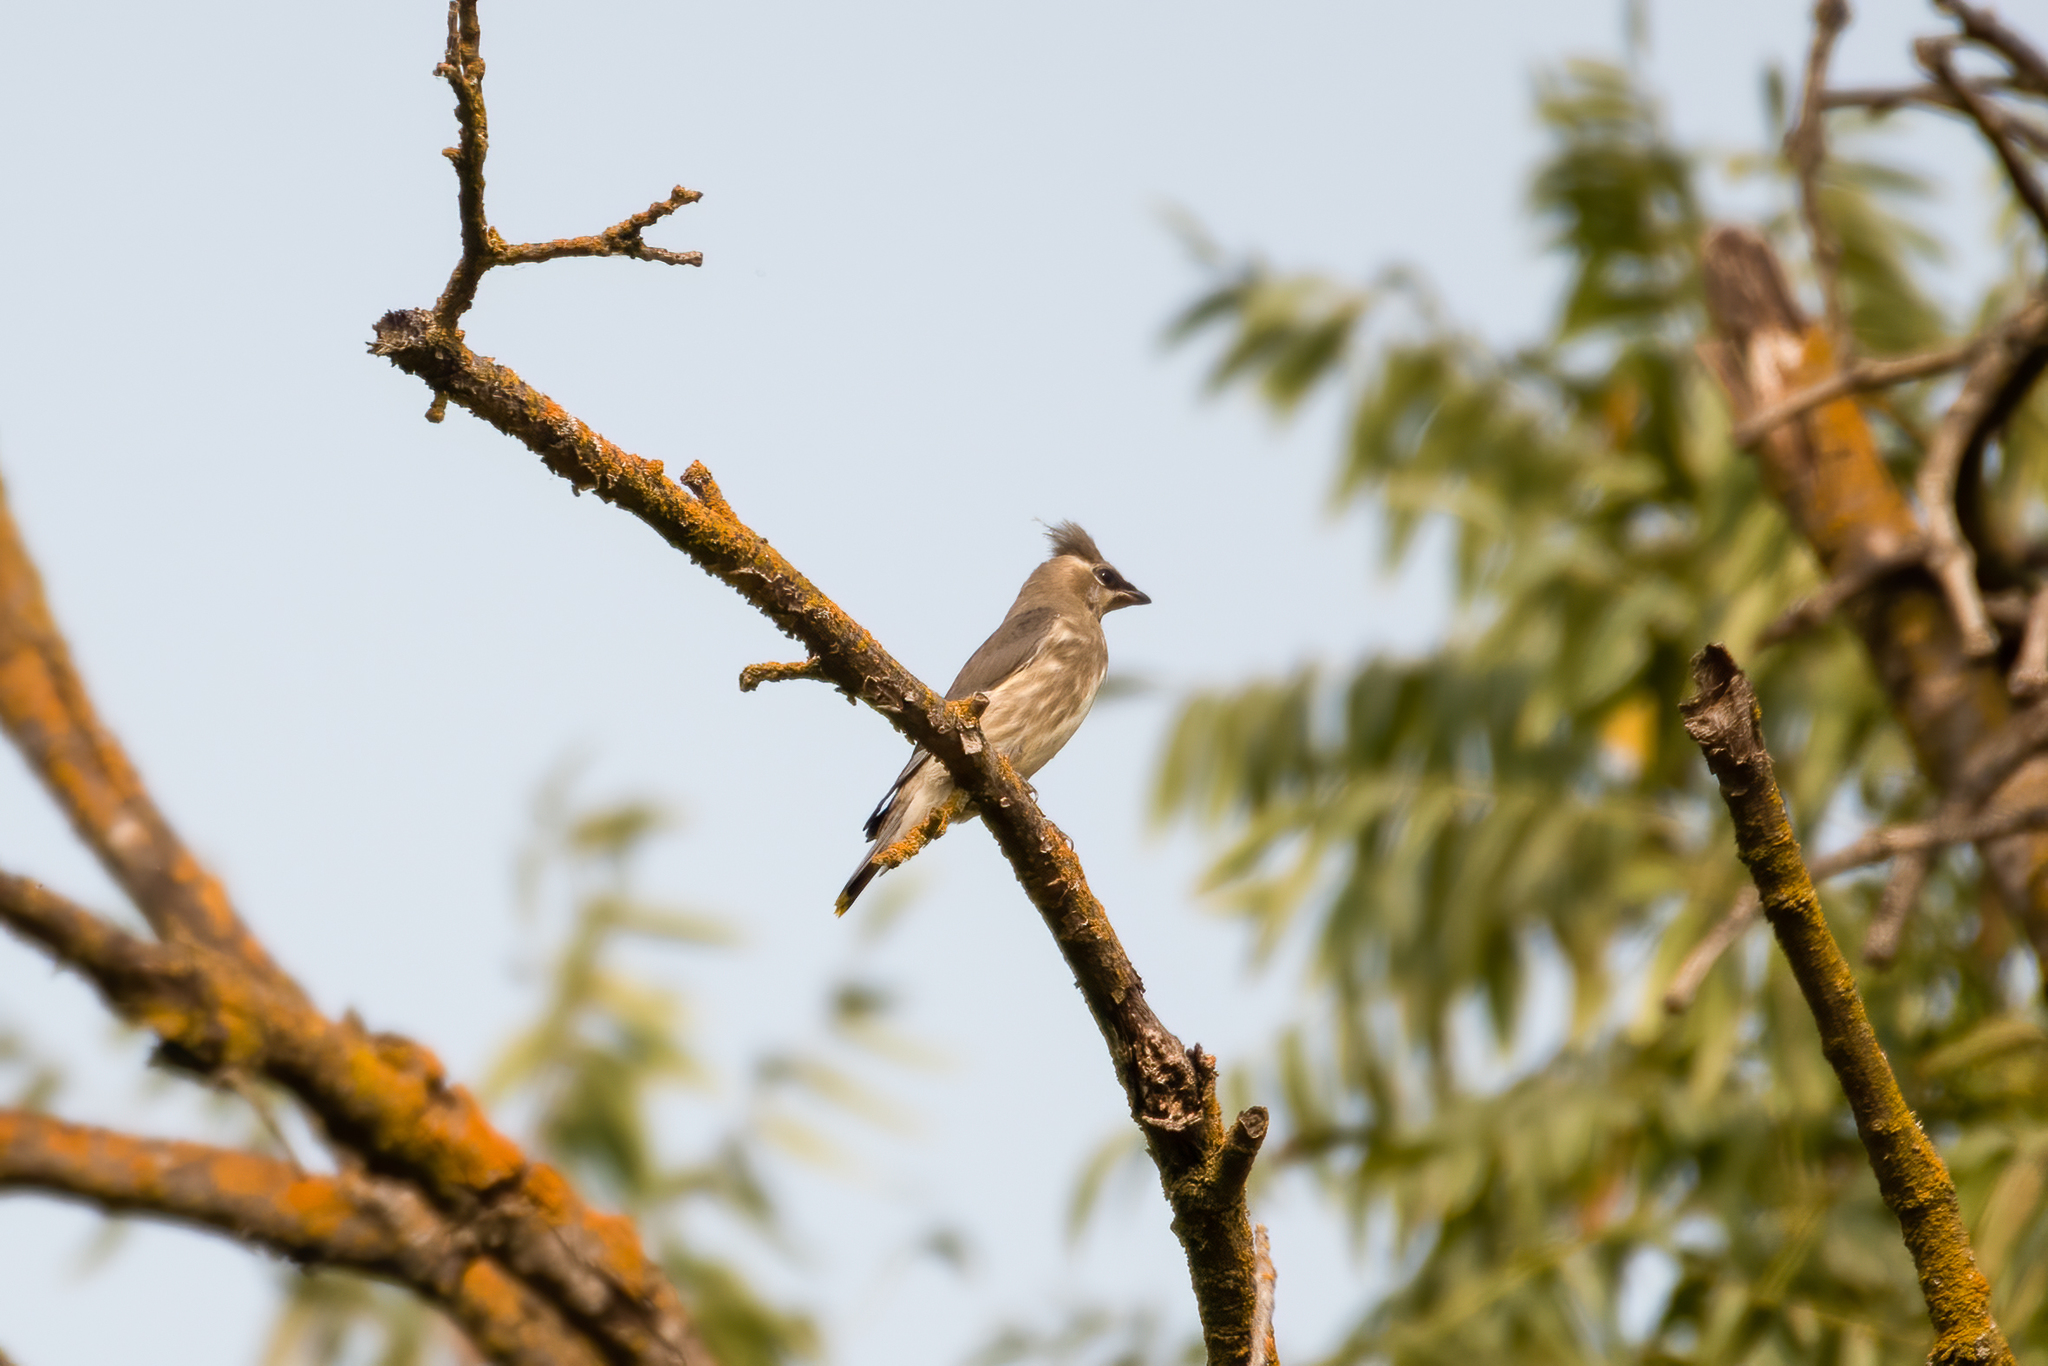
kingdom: Animalia
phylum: Chordata
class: Aves
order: Passeriformes
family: Bombycillidae
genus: Bombycilla
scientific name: Bombycilla cedrorum
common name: Cedar waxwing
